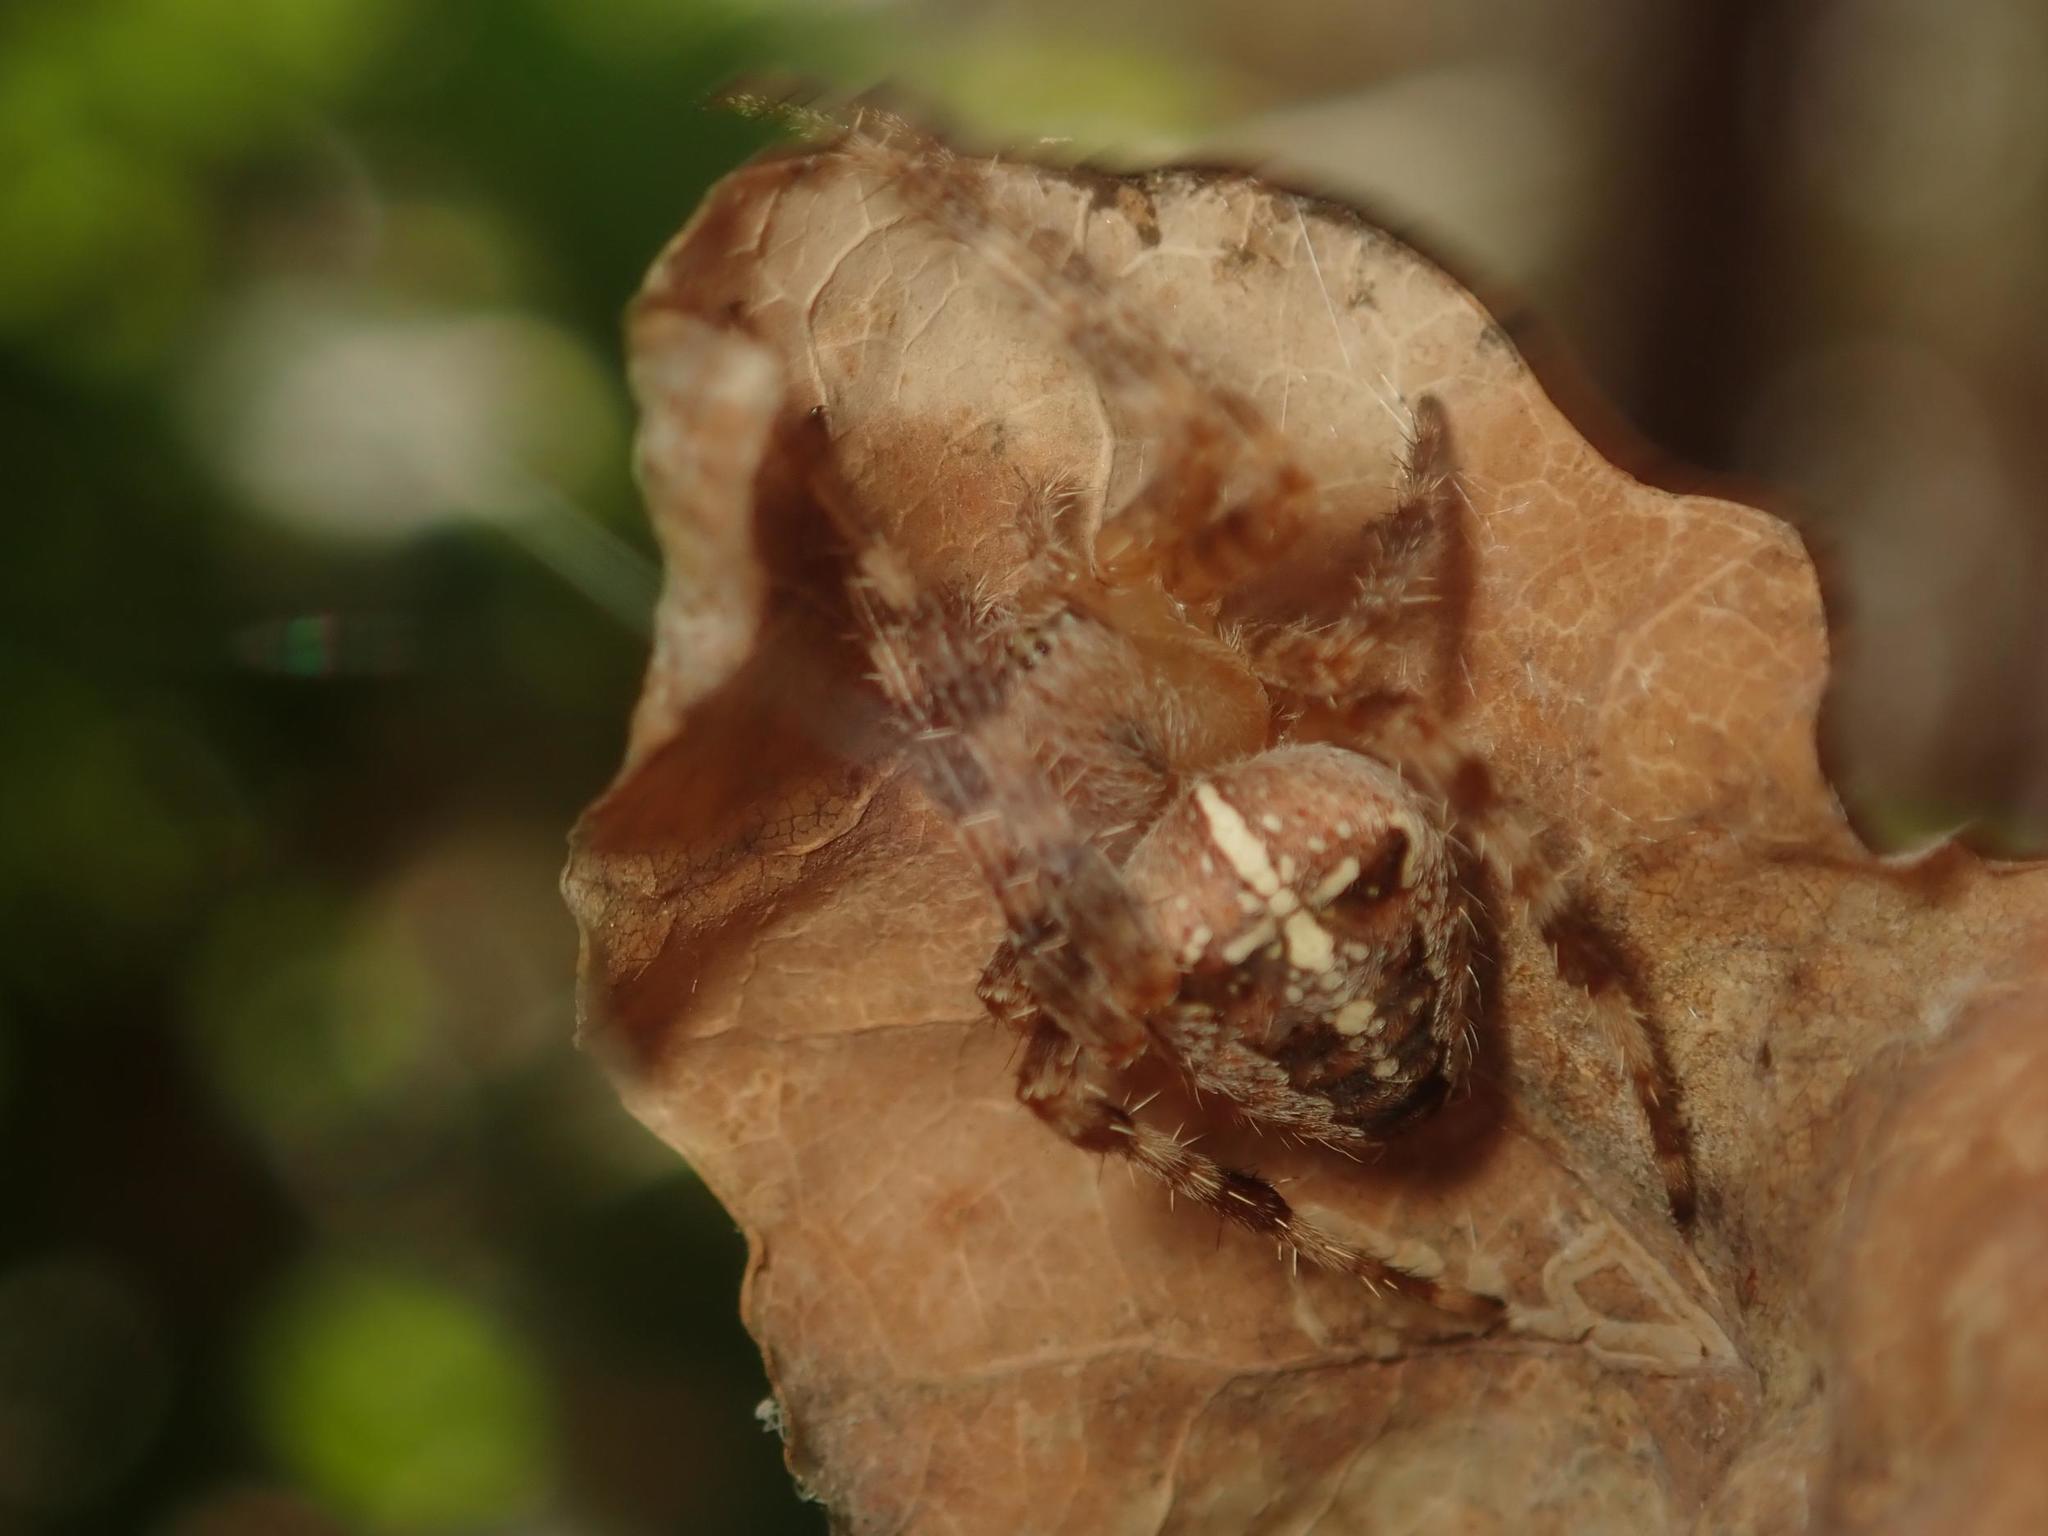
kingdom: Animalia
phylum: Arthropoda
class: Arachnida
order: Araneae
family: Araneidae
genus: Araneus
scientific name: Araneus diadematus
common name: Cross orbweaver
